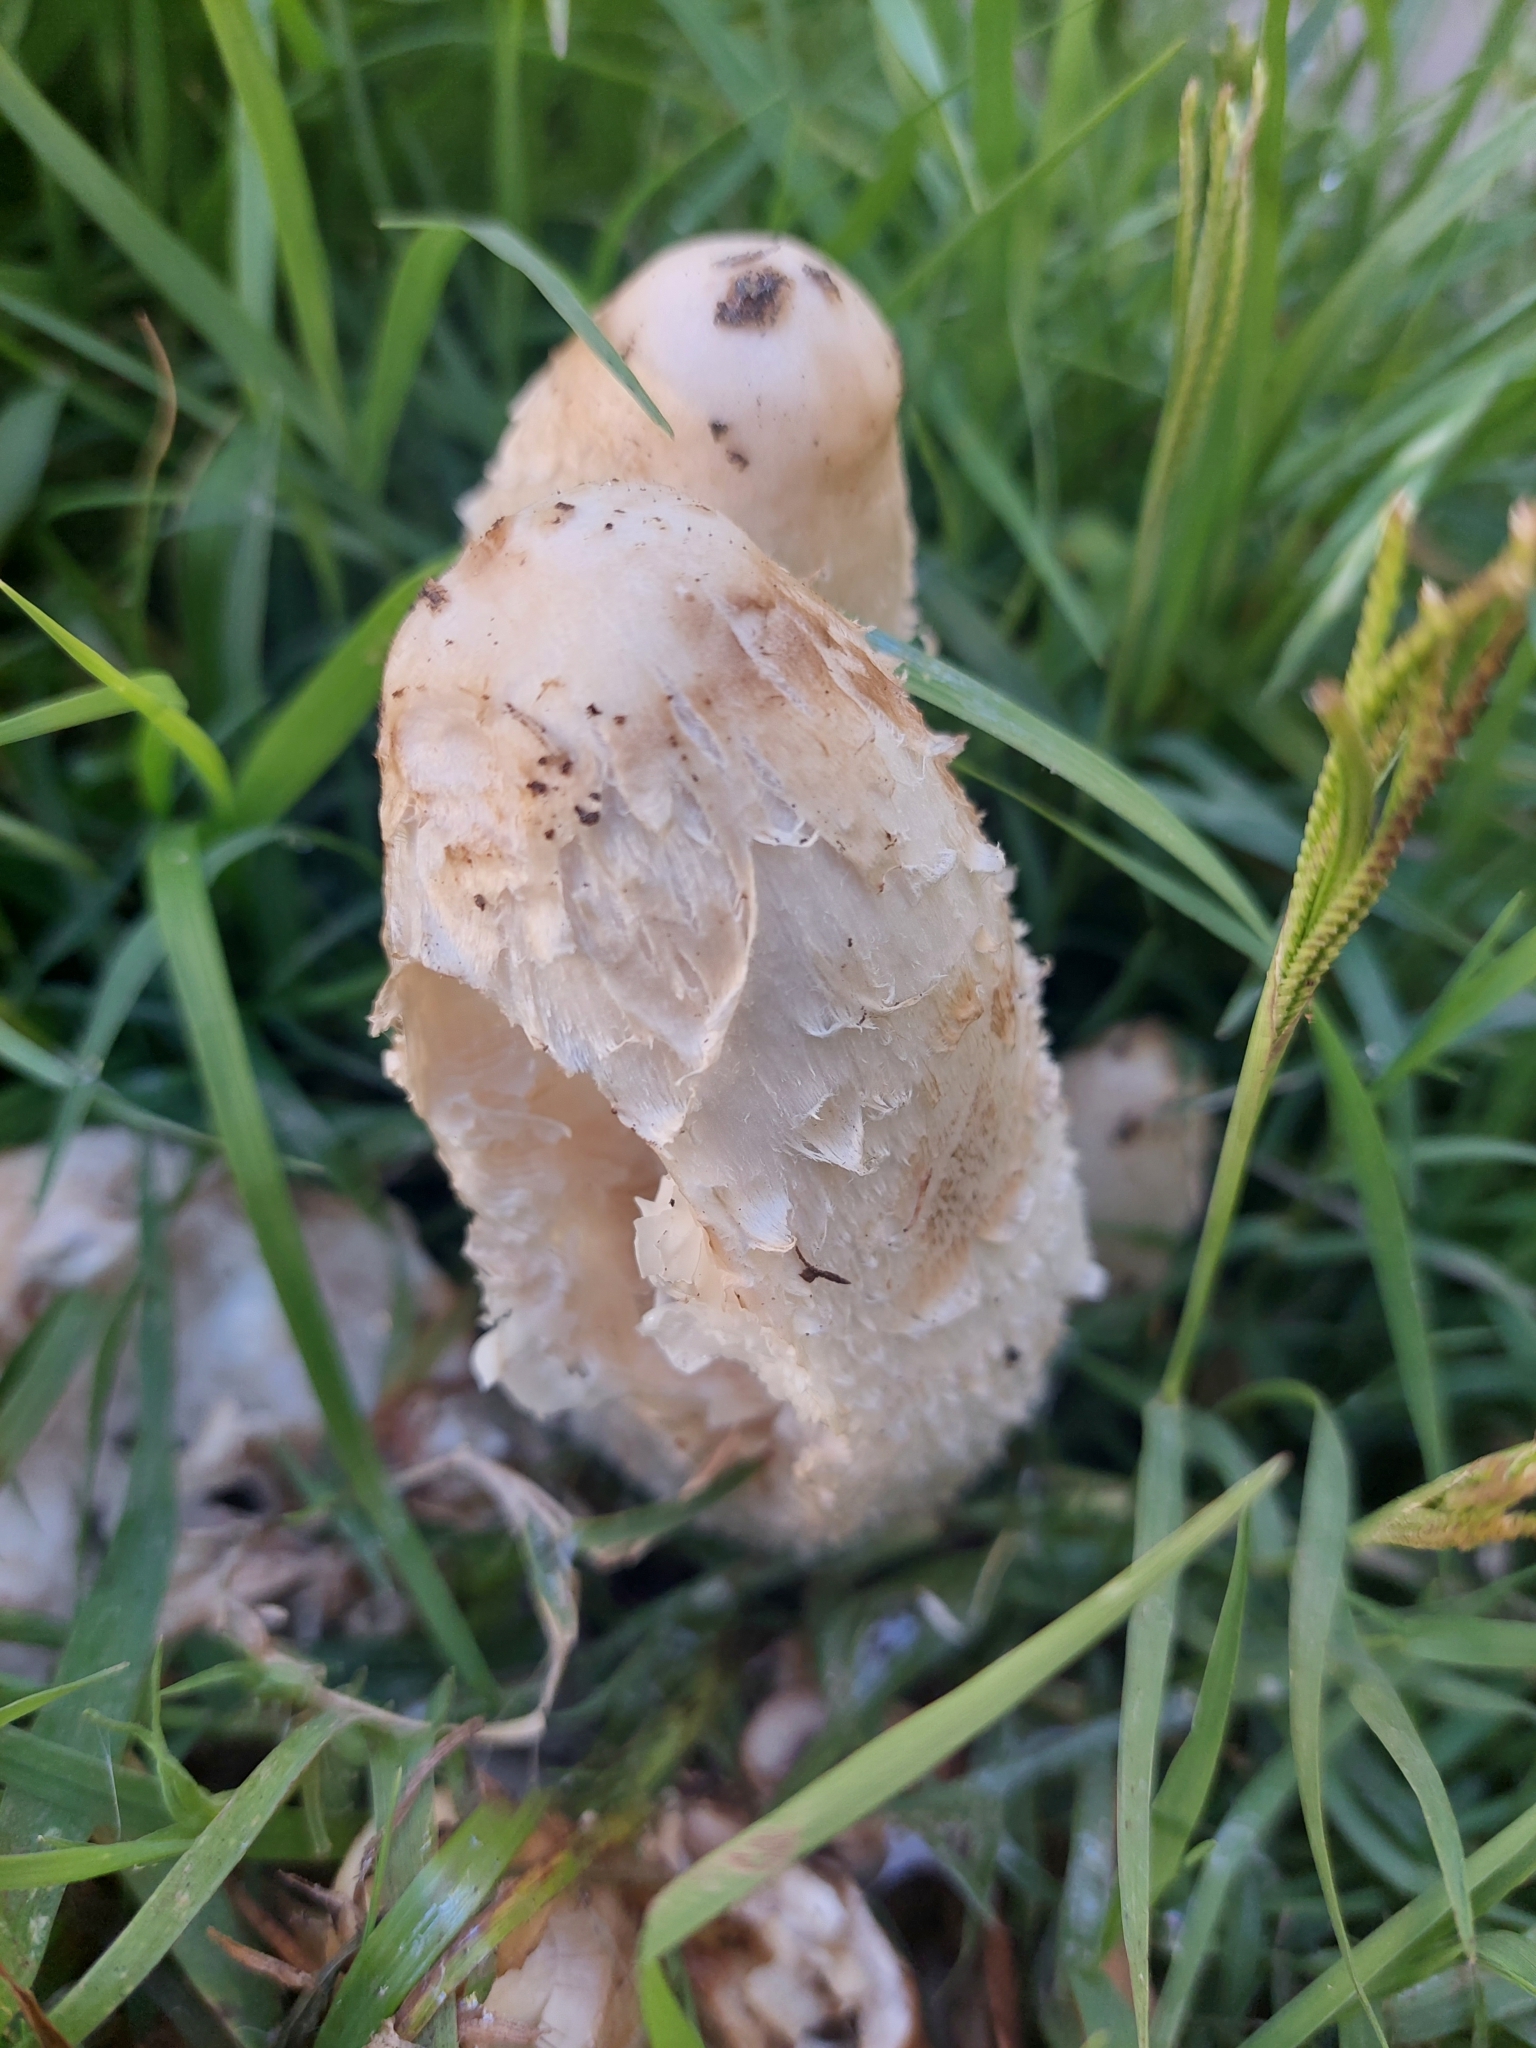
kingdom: Fungi
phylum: Basidiomycota
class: Agaricomycetes
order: Agaricales
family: Agaricaceae
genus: Coprinus
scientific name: Coprinus comatus
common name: Lawyer's wig
